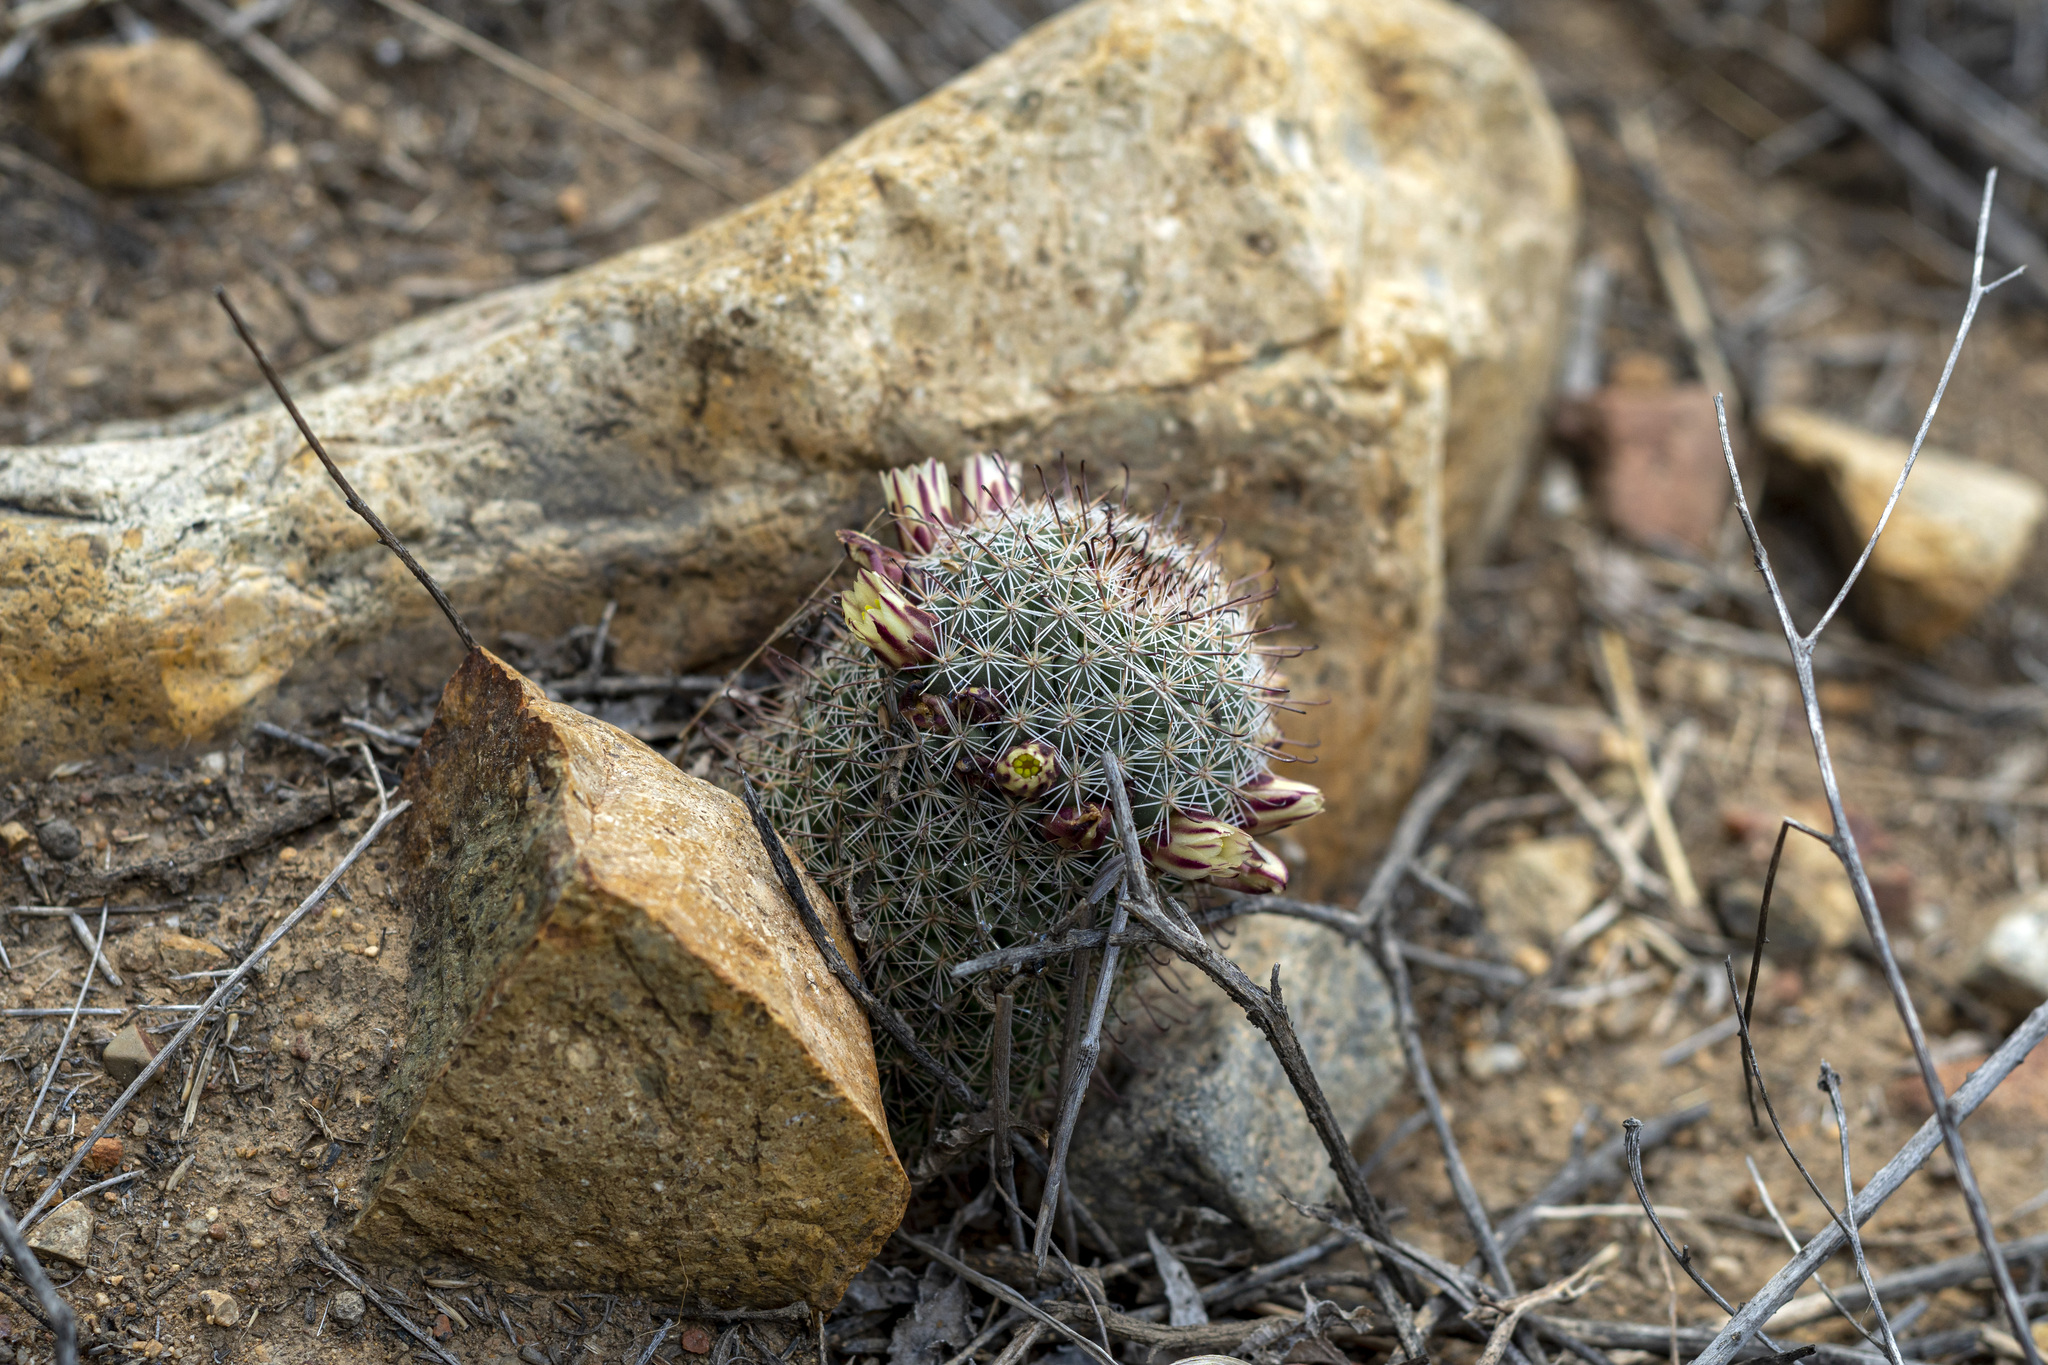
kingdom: Plantae
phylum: Tracheophyta
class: Magnoliopsida
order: Caryophyllales
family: Cactaceae
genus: Cochemiea
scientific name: Cochemiea dioica
